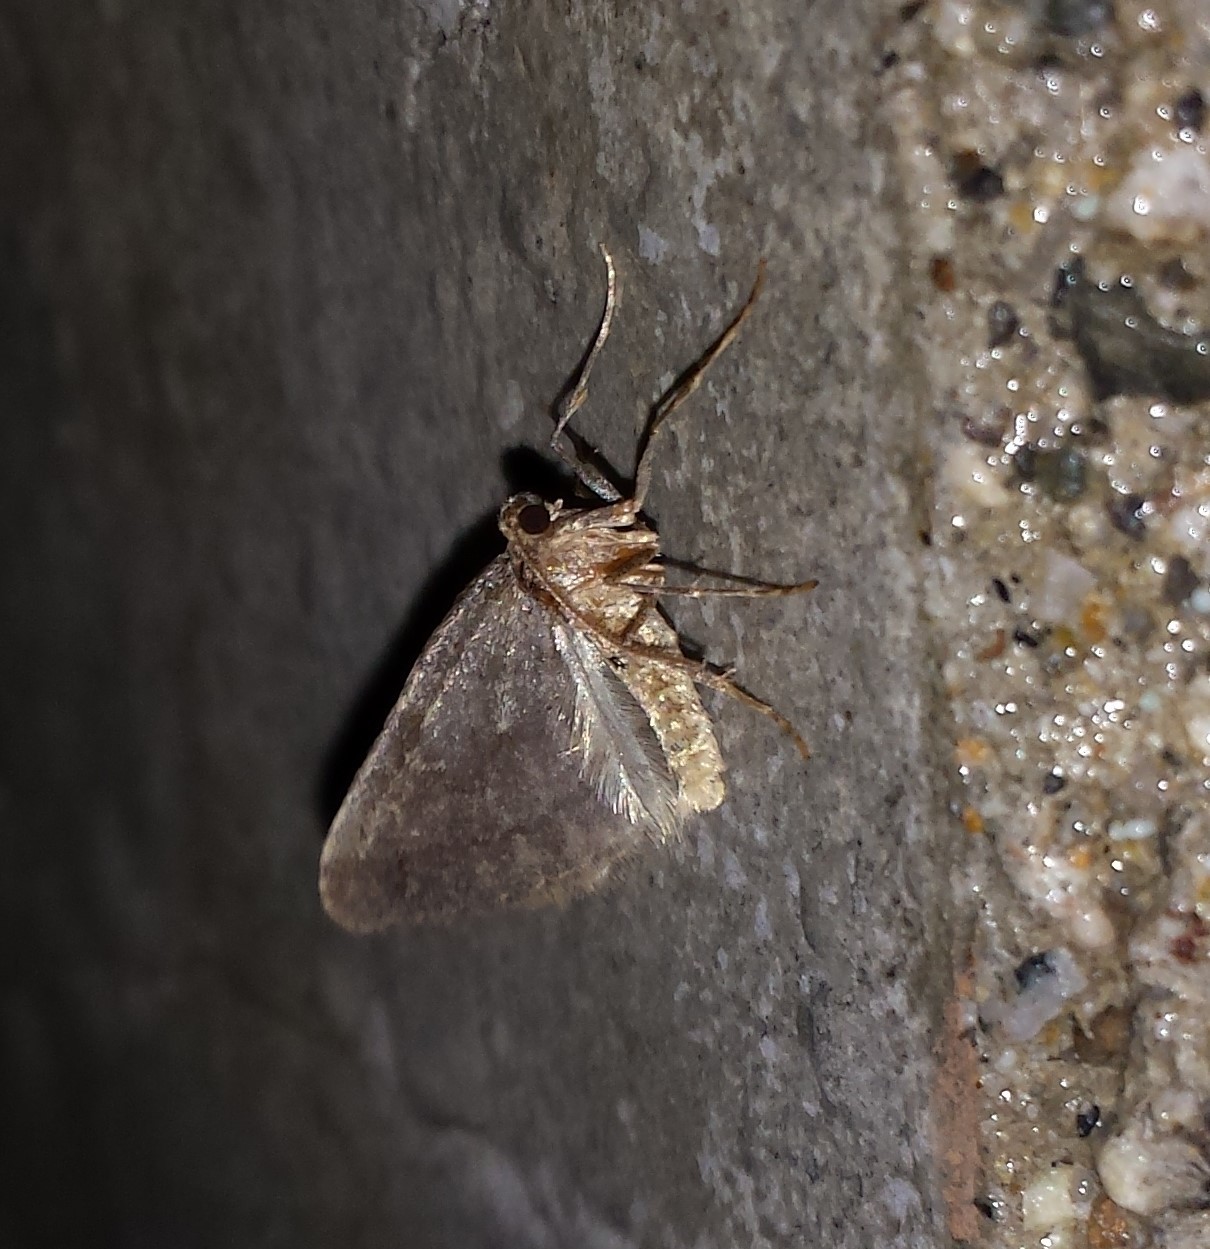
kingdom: Animalia
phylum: Arthropoda
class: Insecta
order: Lepidoptera
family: Geometridae
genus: Operophtera
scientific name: Operophtera brumata
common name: Winter moth
